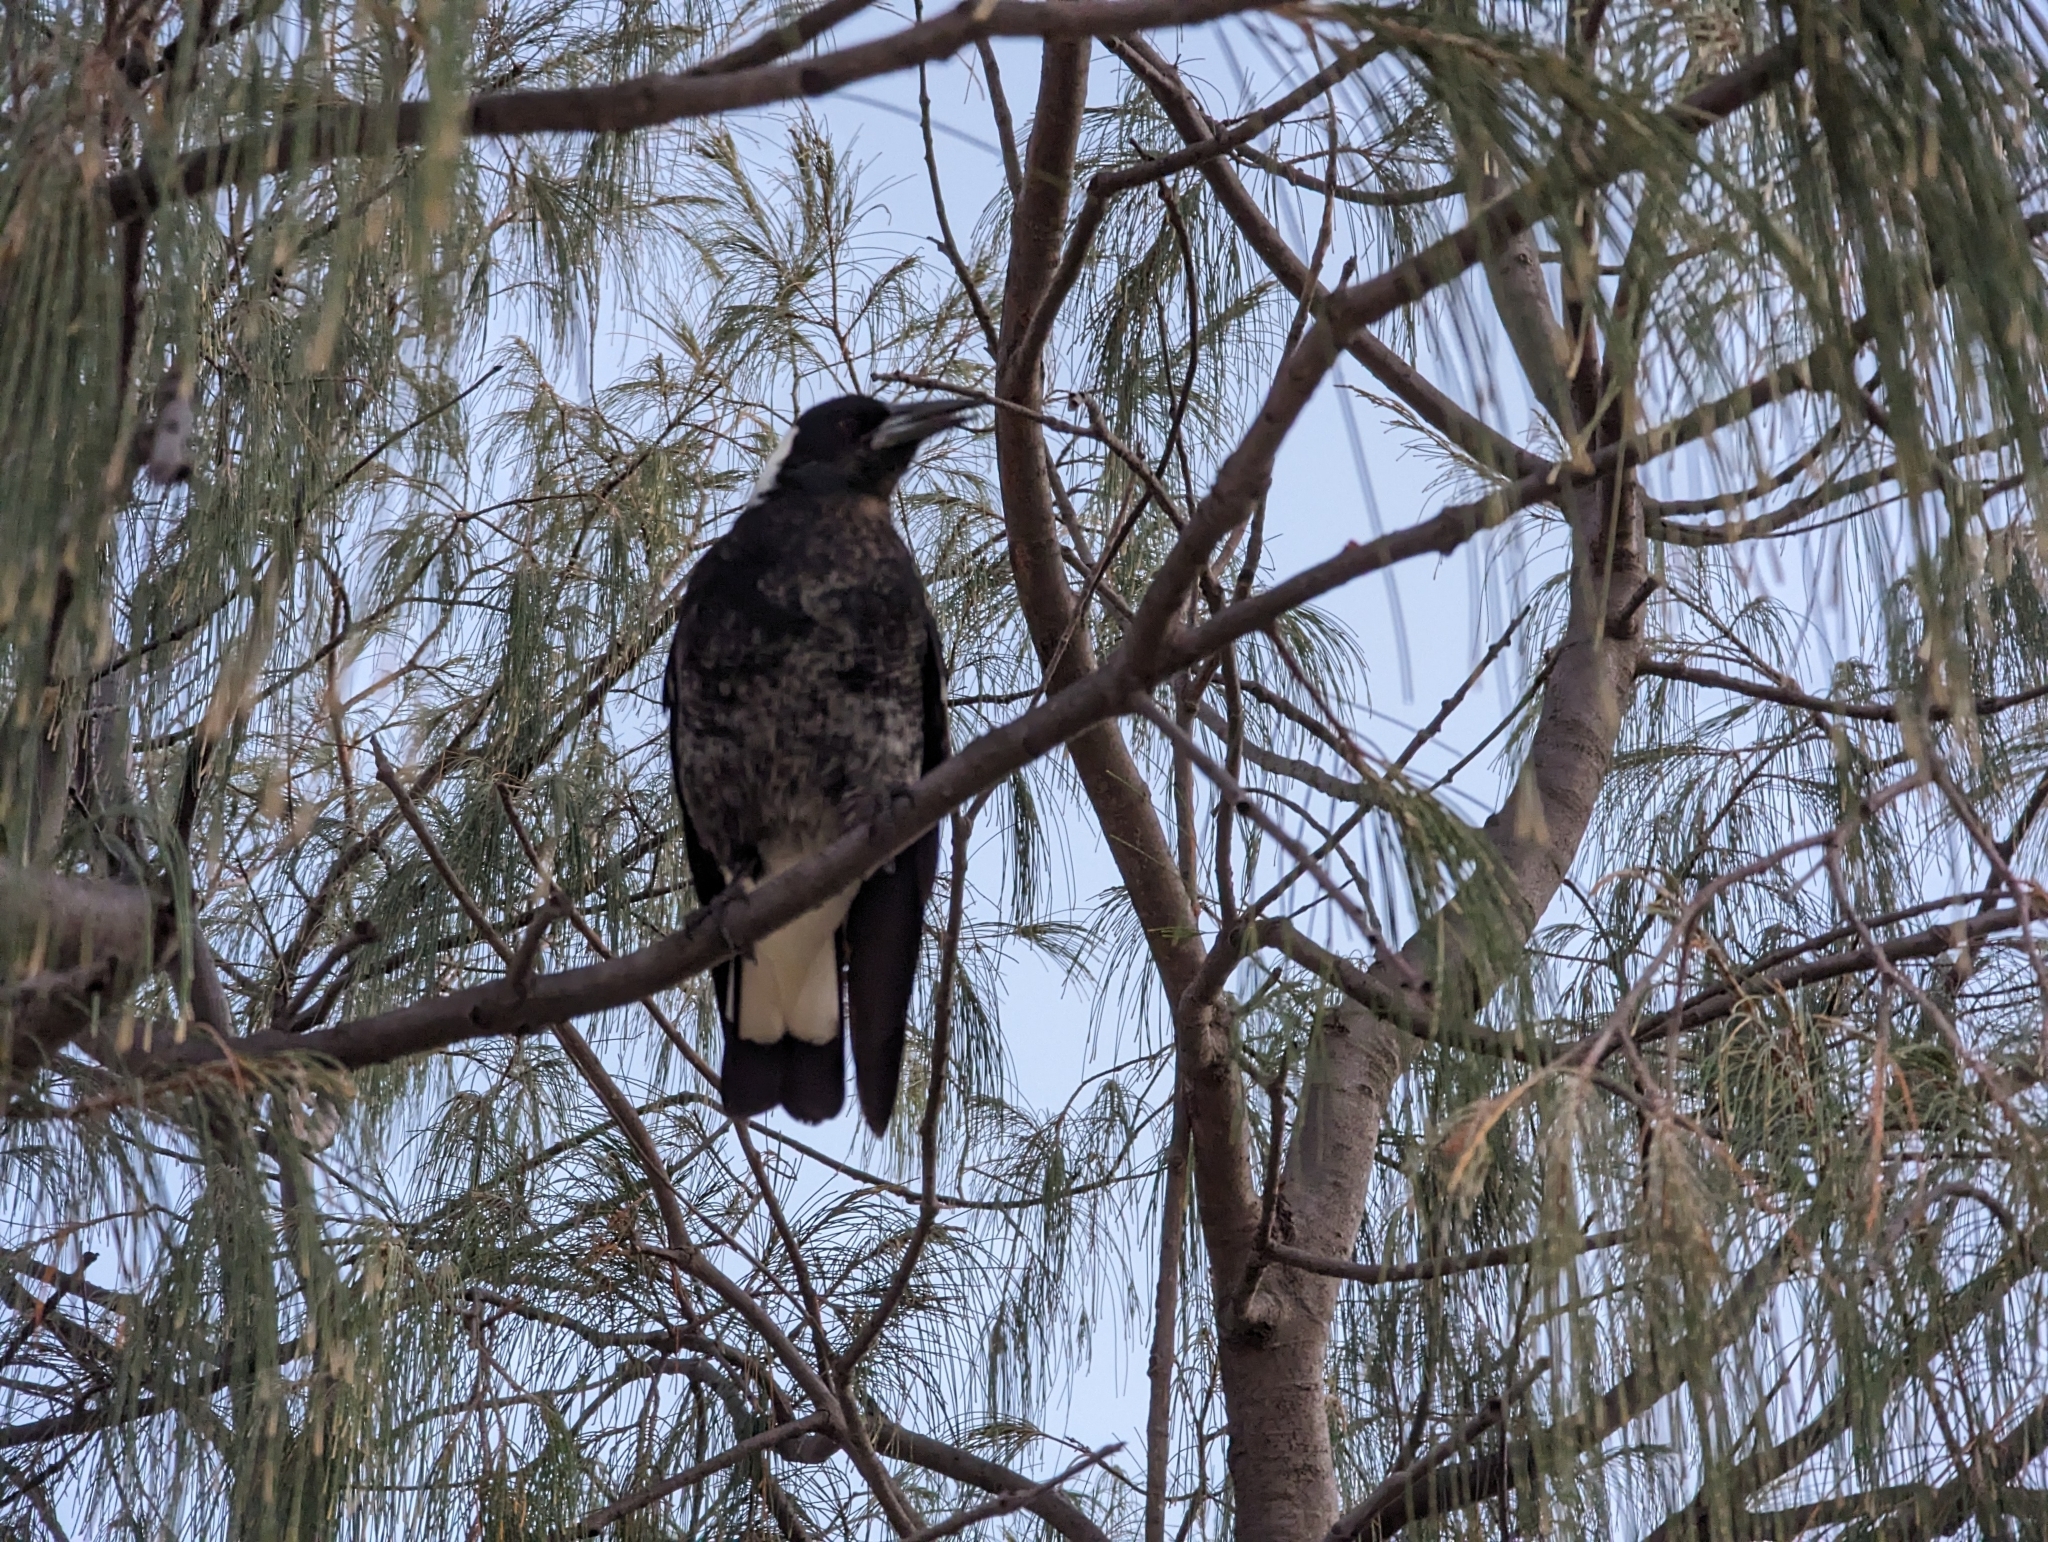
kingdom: Animalia
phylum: Chordata
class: Aves
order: Passeriformes
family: Cracticidae
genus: Gymnorhina
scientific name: Gymnorhina tibicen
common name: Australian magpie
